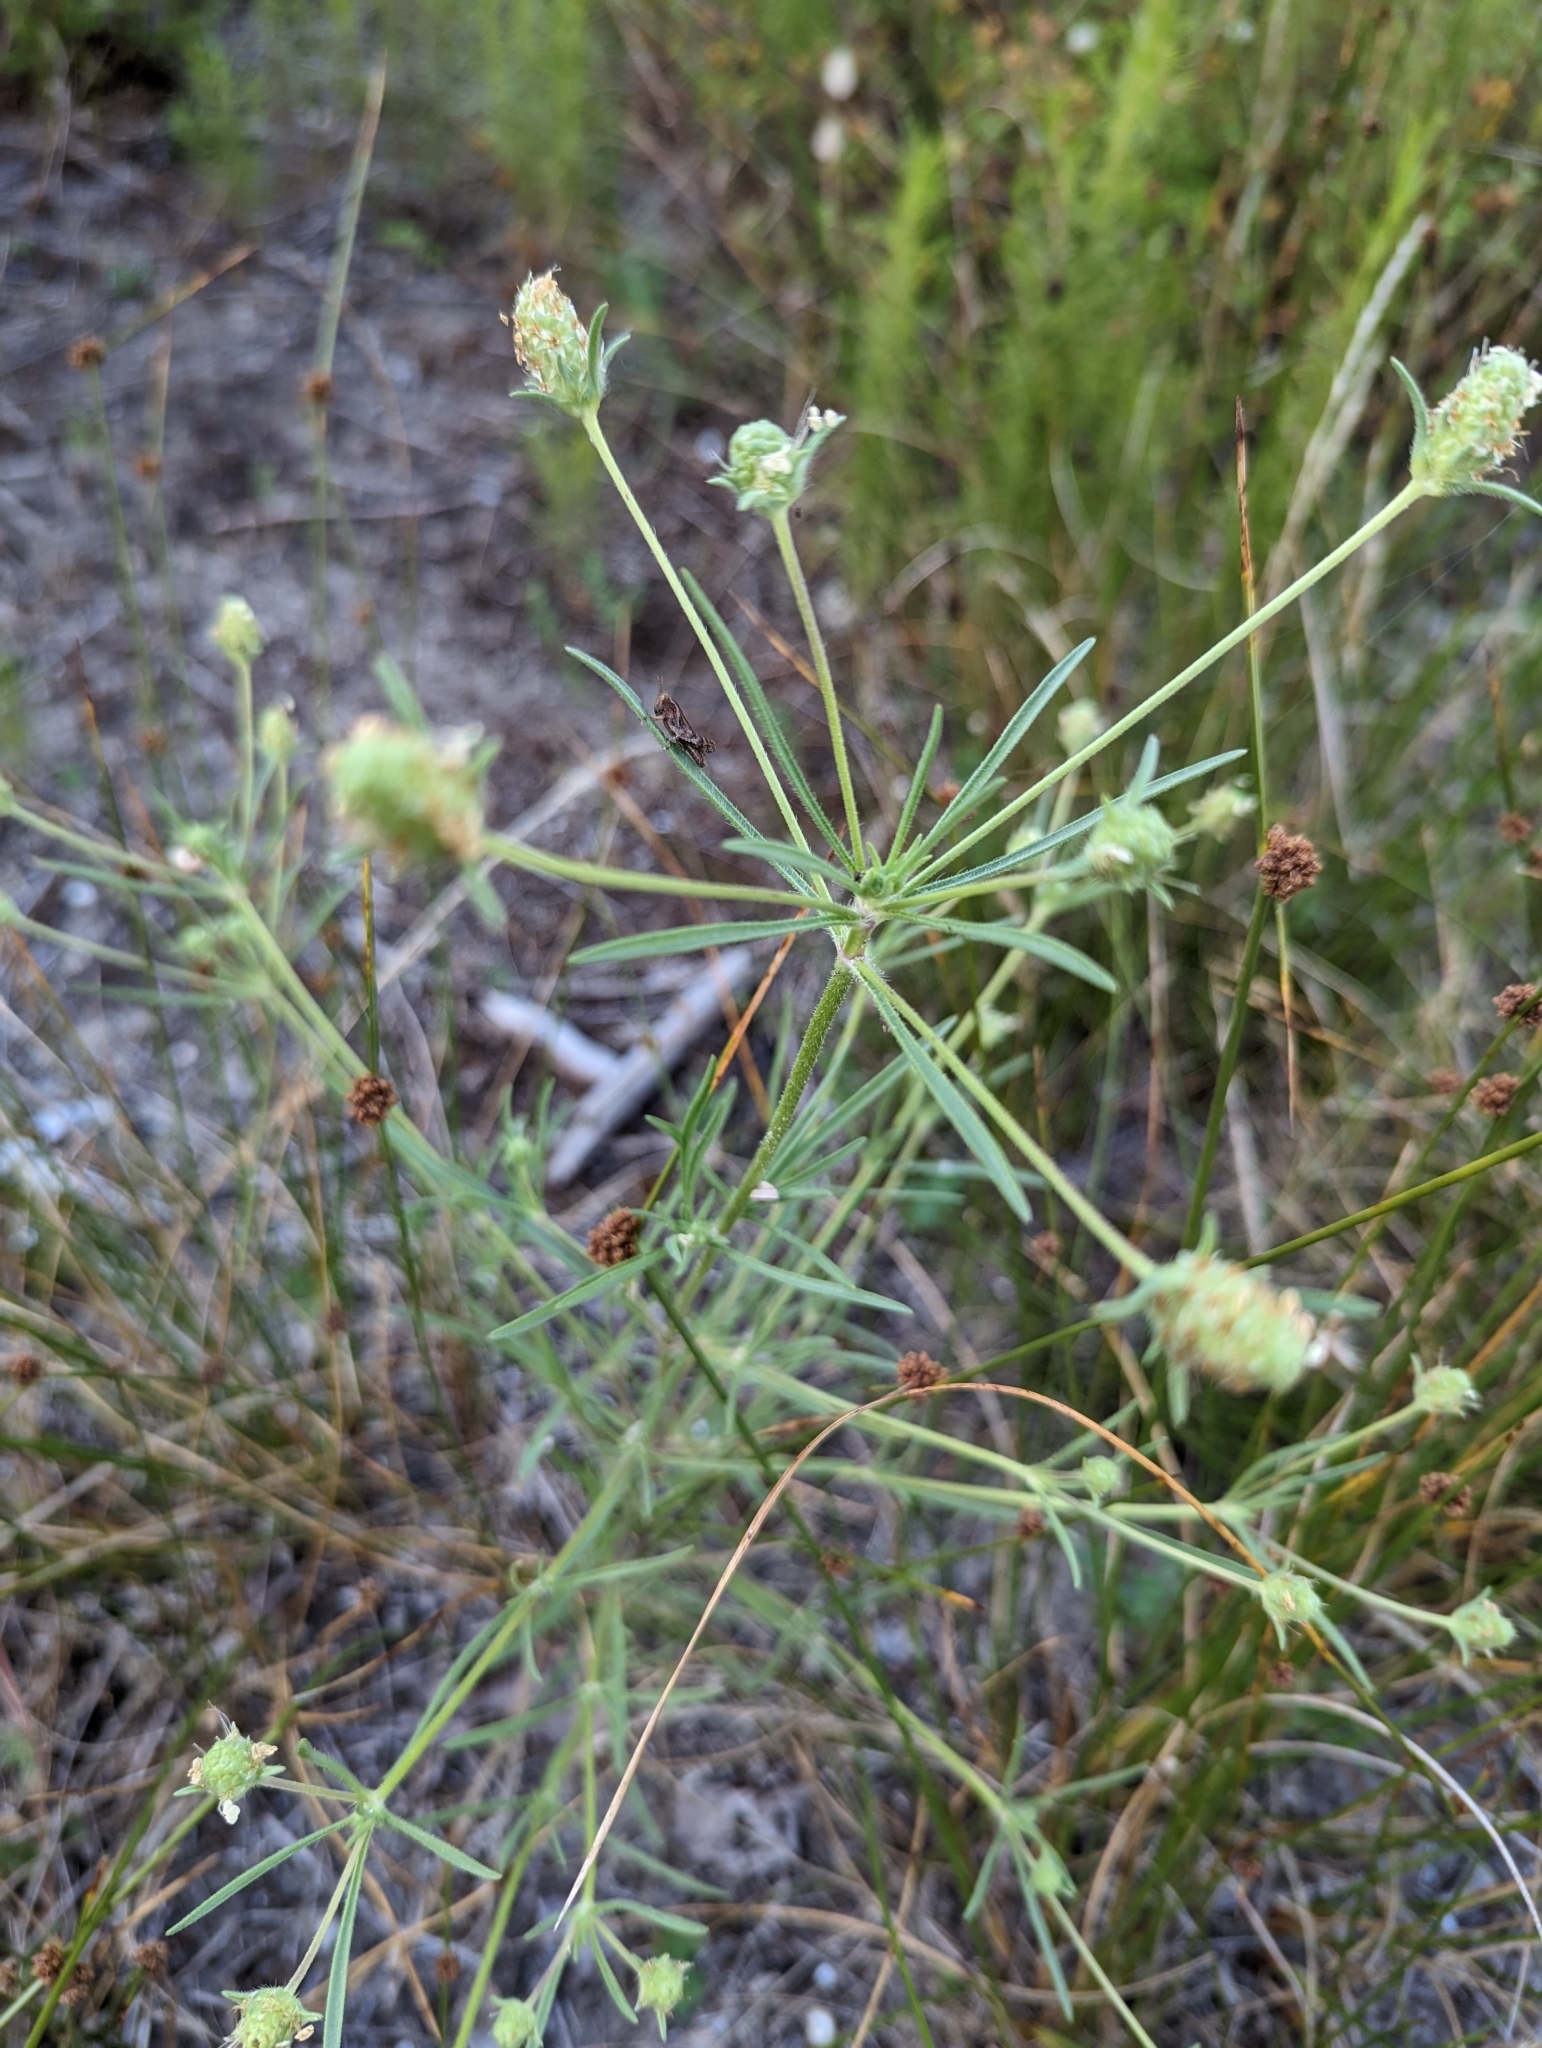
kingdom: Plantae
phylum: Tracheophyta
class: Magnoliopsida
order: Lamiales
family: Plantaginaceae
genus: Plantago
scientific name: Plantago arenaria
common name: Branched plantain
